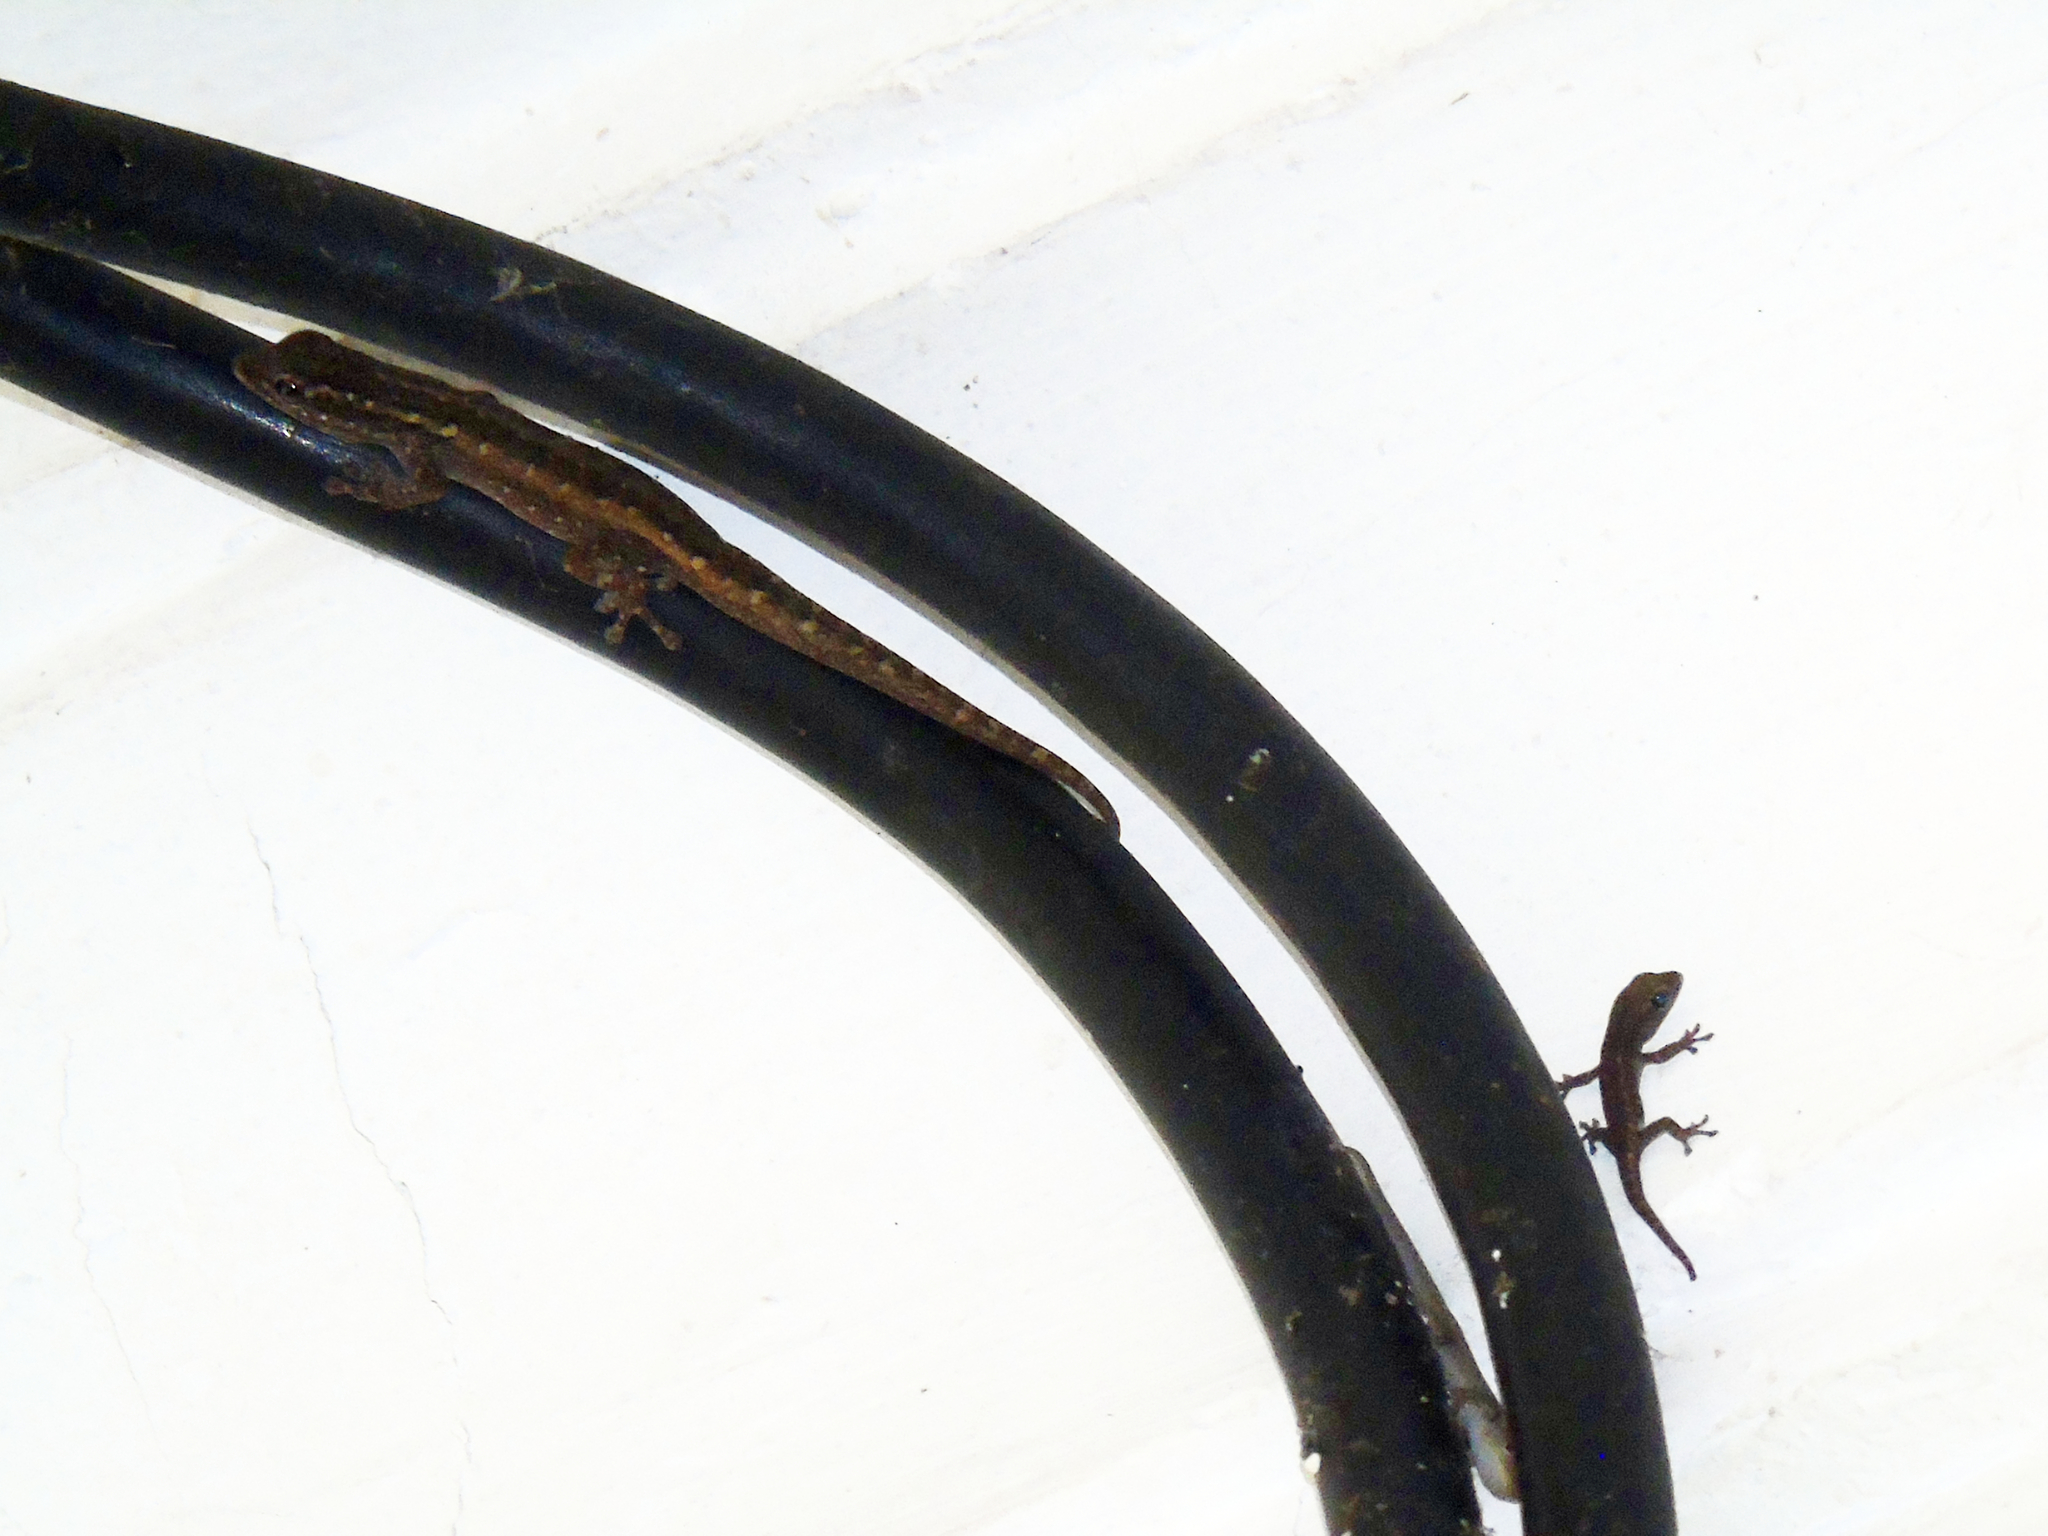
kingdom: Animalia
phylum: Chordata
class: Squamata
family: Gekkonidae
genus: Lygodactylus
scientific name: Lygodactylus picturatus
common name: Painted dwarf gecko
